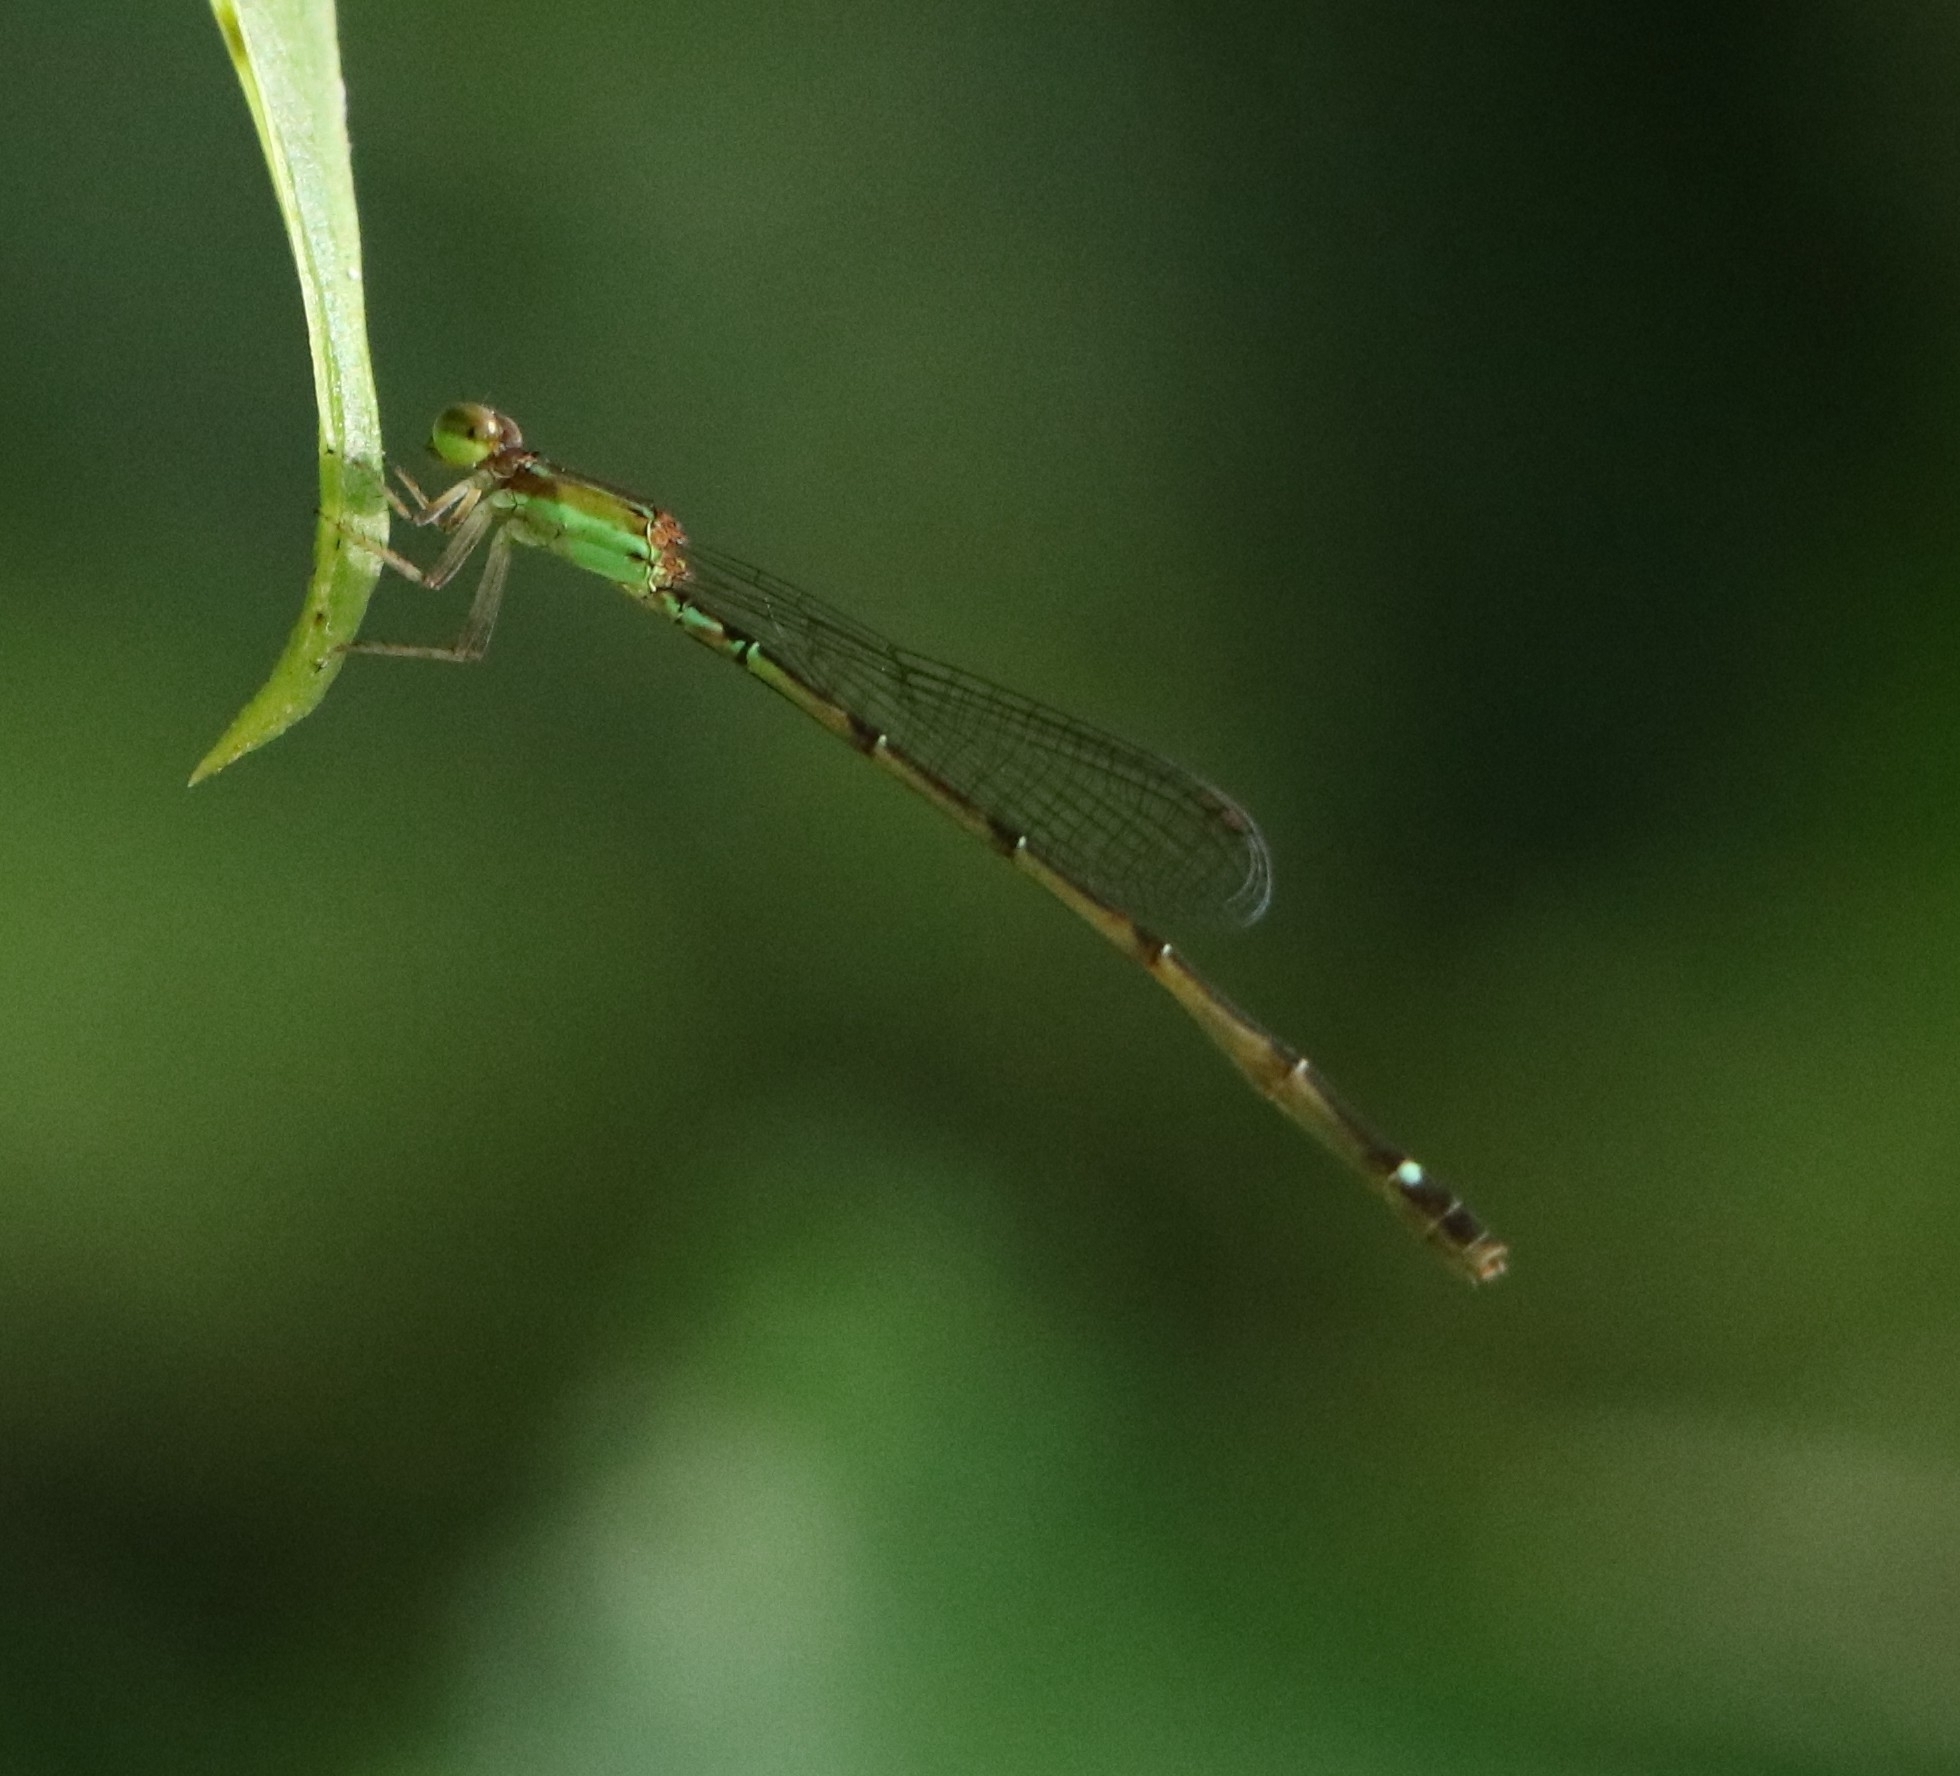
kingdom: Animalia
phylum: Arthropoda
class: Insecta
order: Odonata
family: Coenagrionidae
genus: Mortonagrion
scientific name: Mortonagrion varralli
